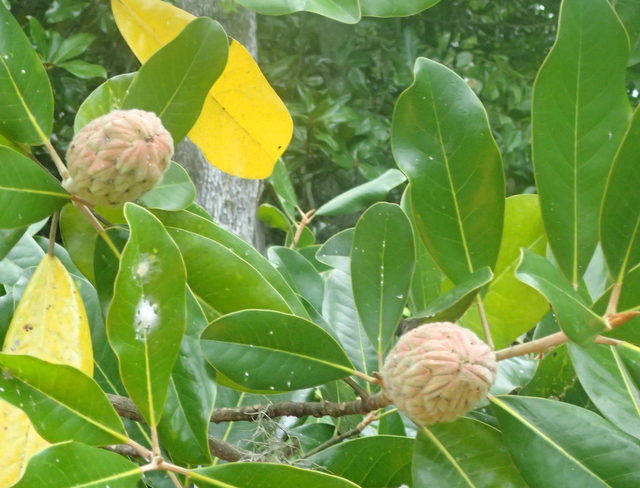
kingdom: Plantae
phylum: Tracheophyta
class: Magnoliopsida
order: Magnoliales
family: Magnoliaceae
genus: Magnolia
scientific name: Magnolia grandiflora
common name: Southern magnolia
